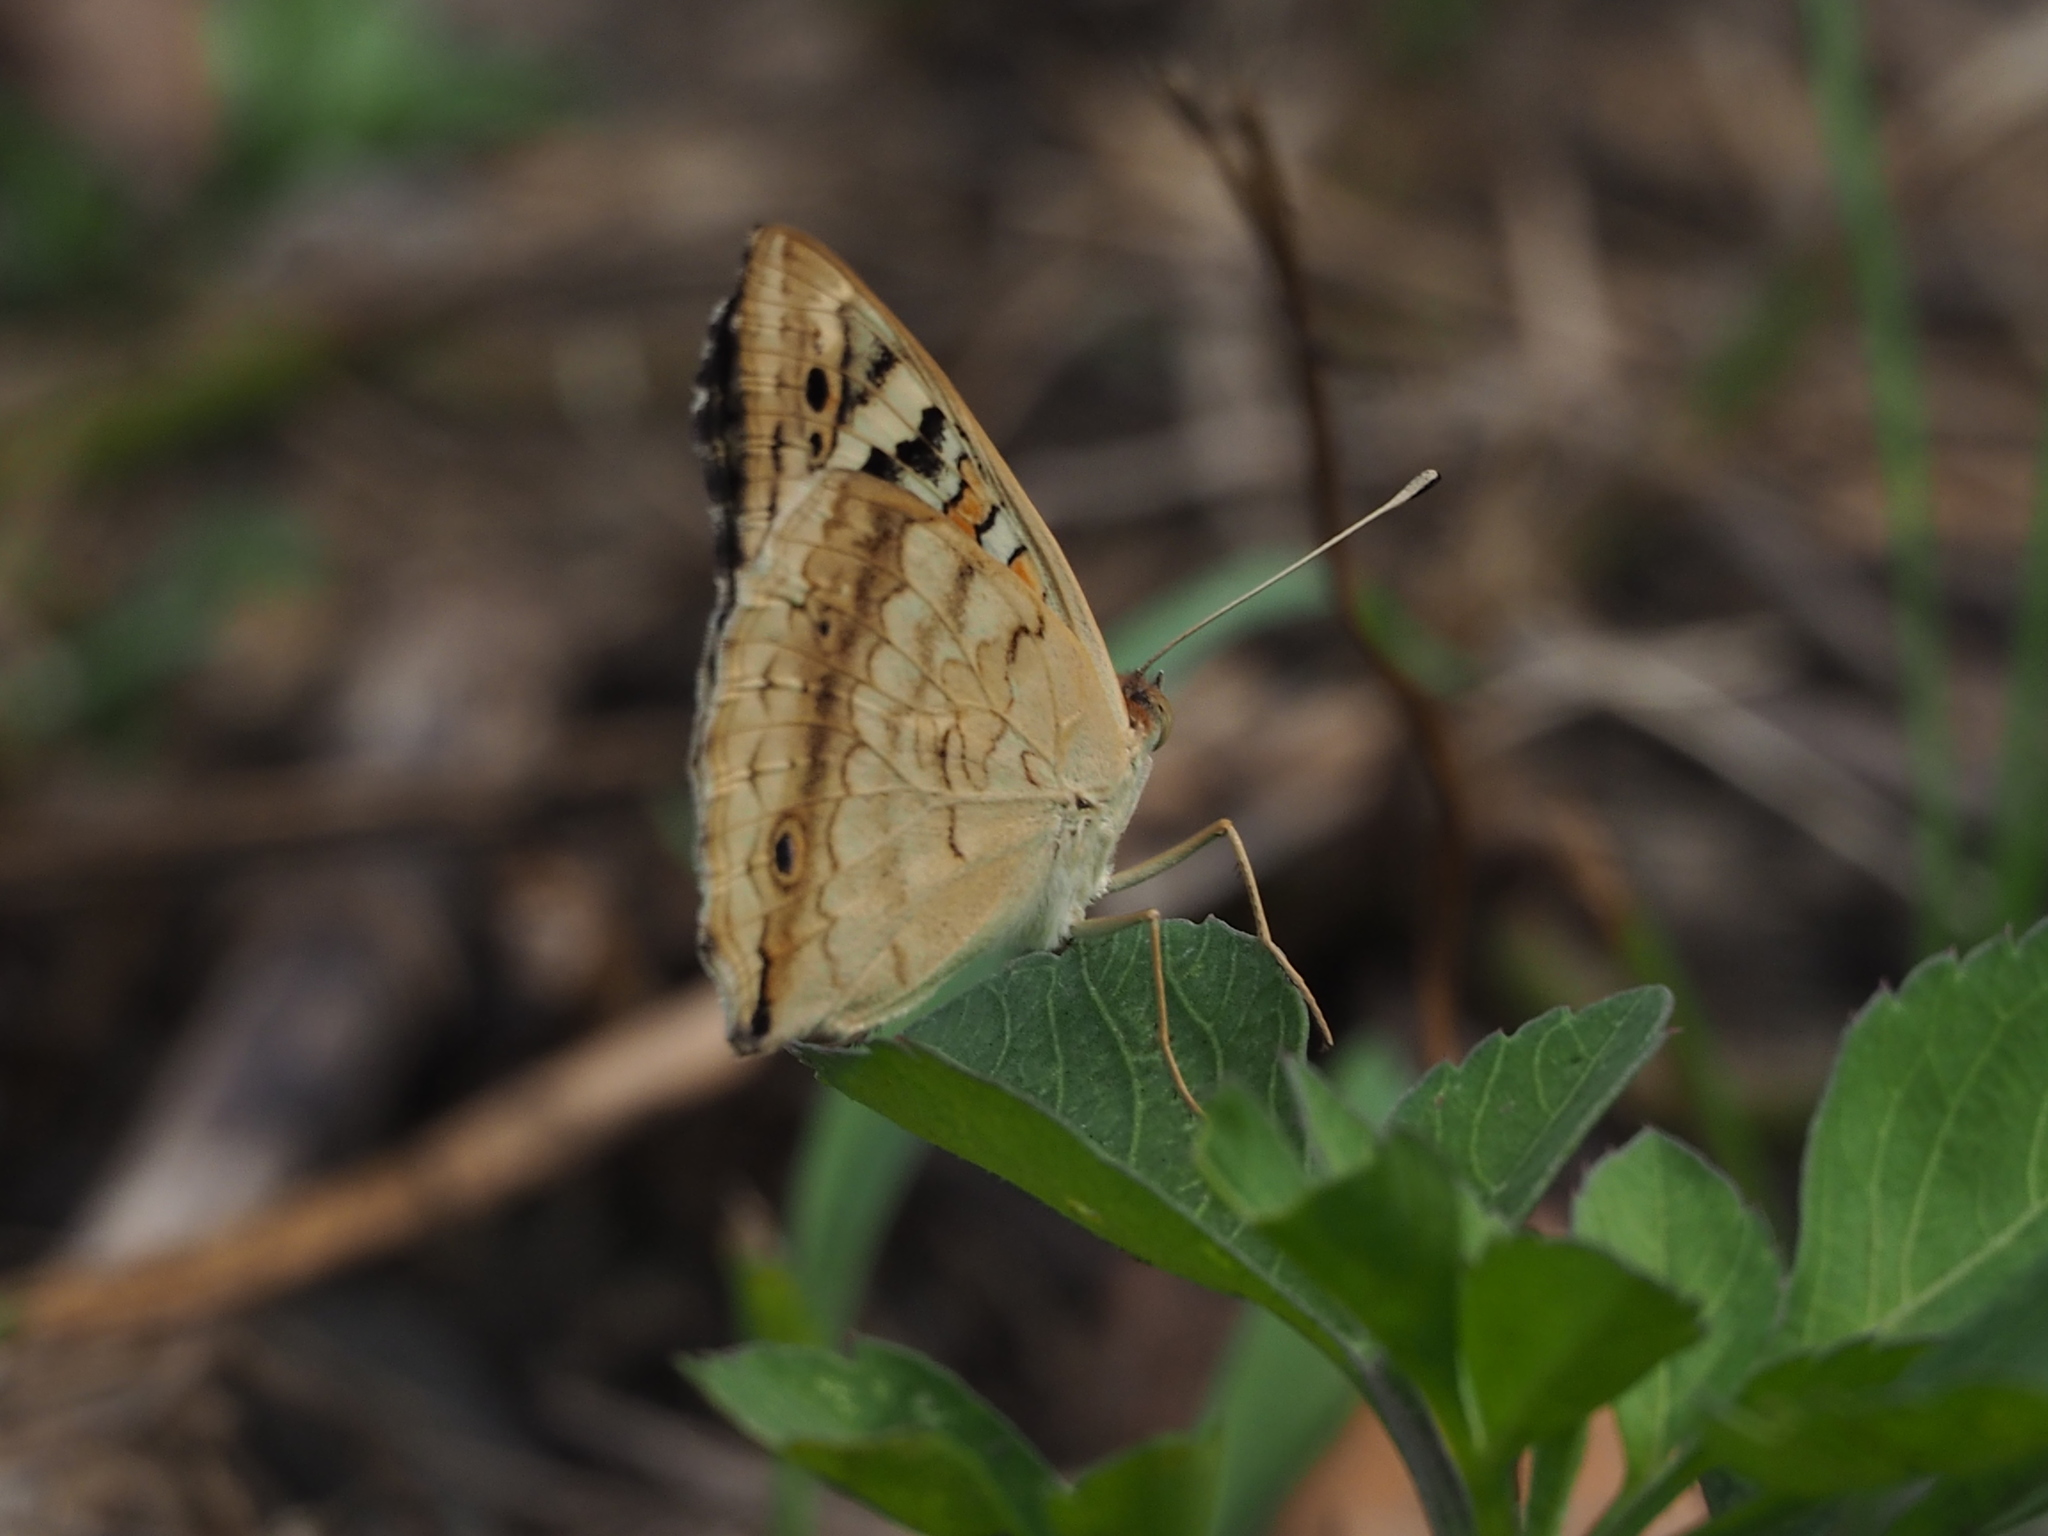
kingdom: Animalia
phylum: Arthropoda
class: Insecta
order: Lepidoptera
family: Nymphalidae
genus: Junonia
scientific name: Junonia orithya
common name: Blue pansy
